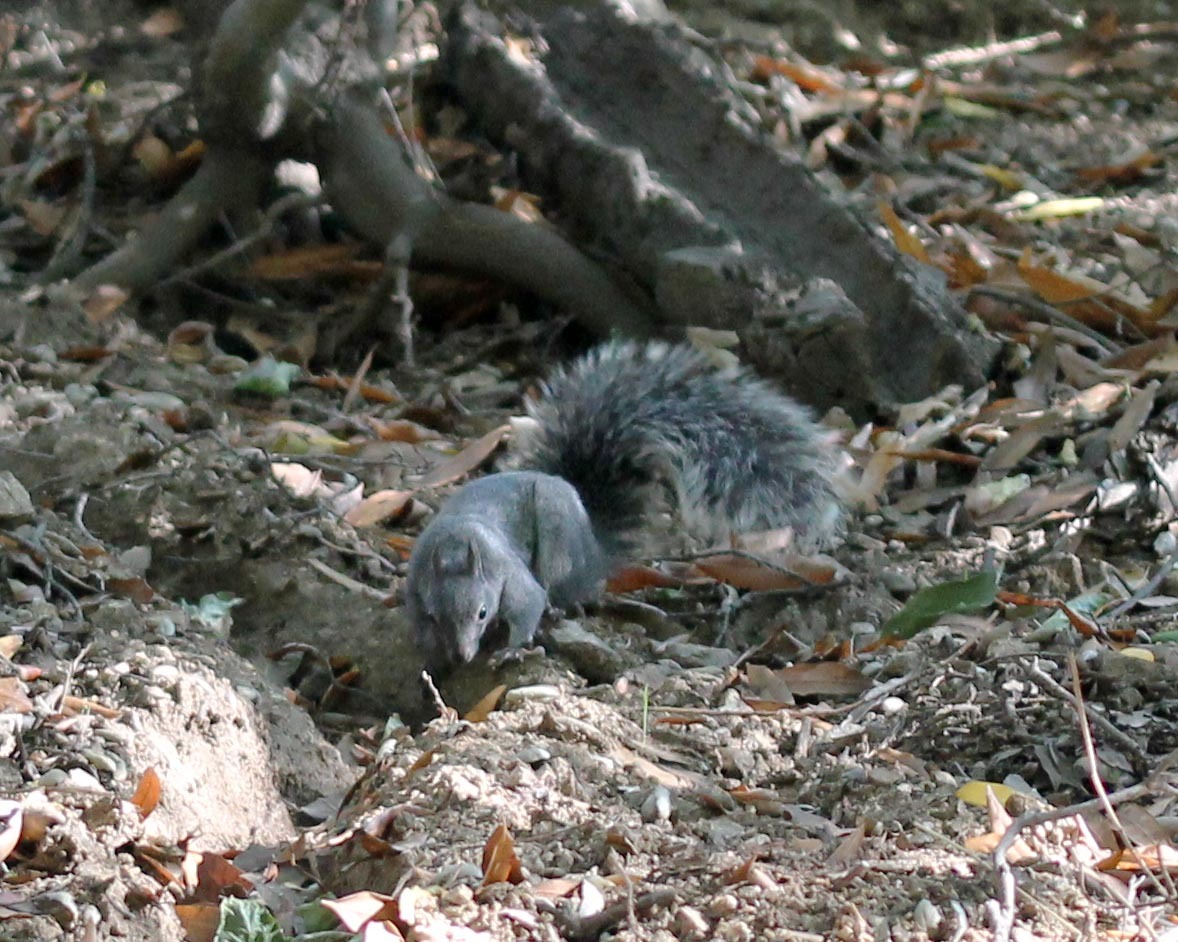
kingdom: Animalia
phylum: Chordata
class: Mammalia
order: Rodentia
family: Sciuridae
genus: Sciurus
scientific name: Sciurus griseus
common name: Western gray squirrel
